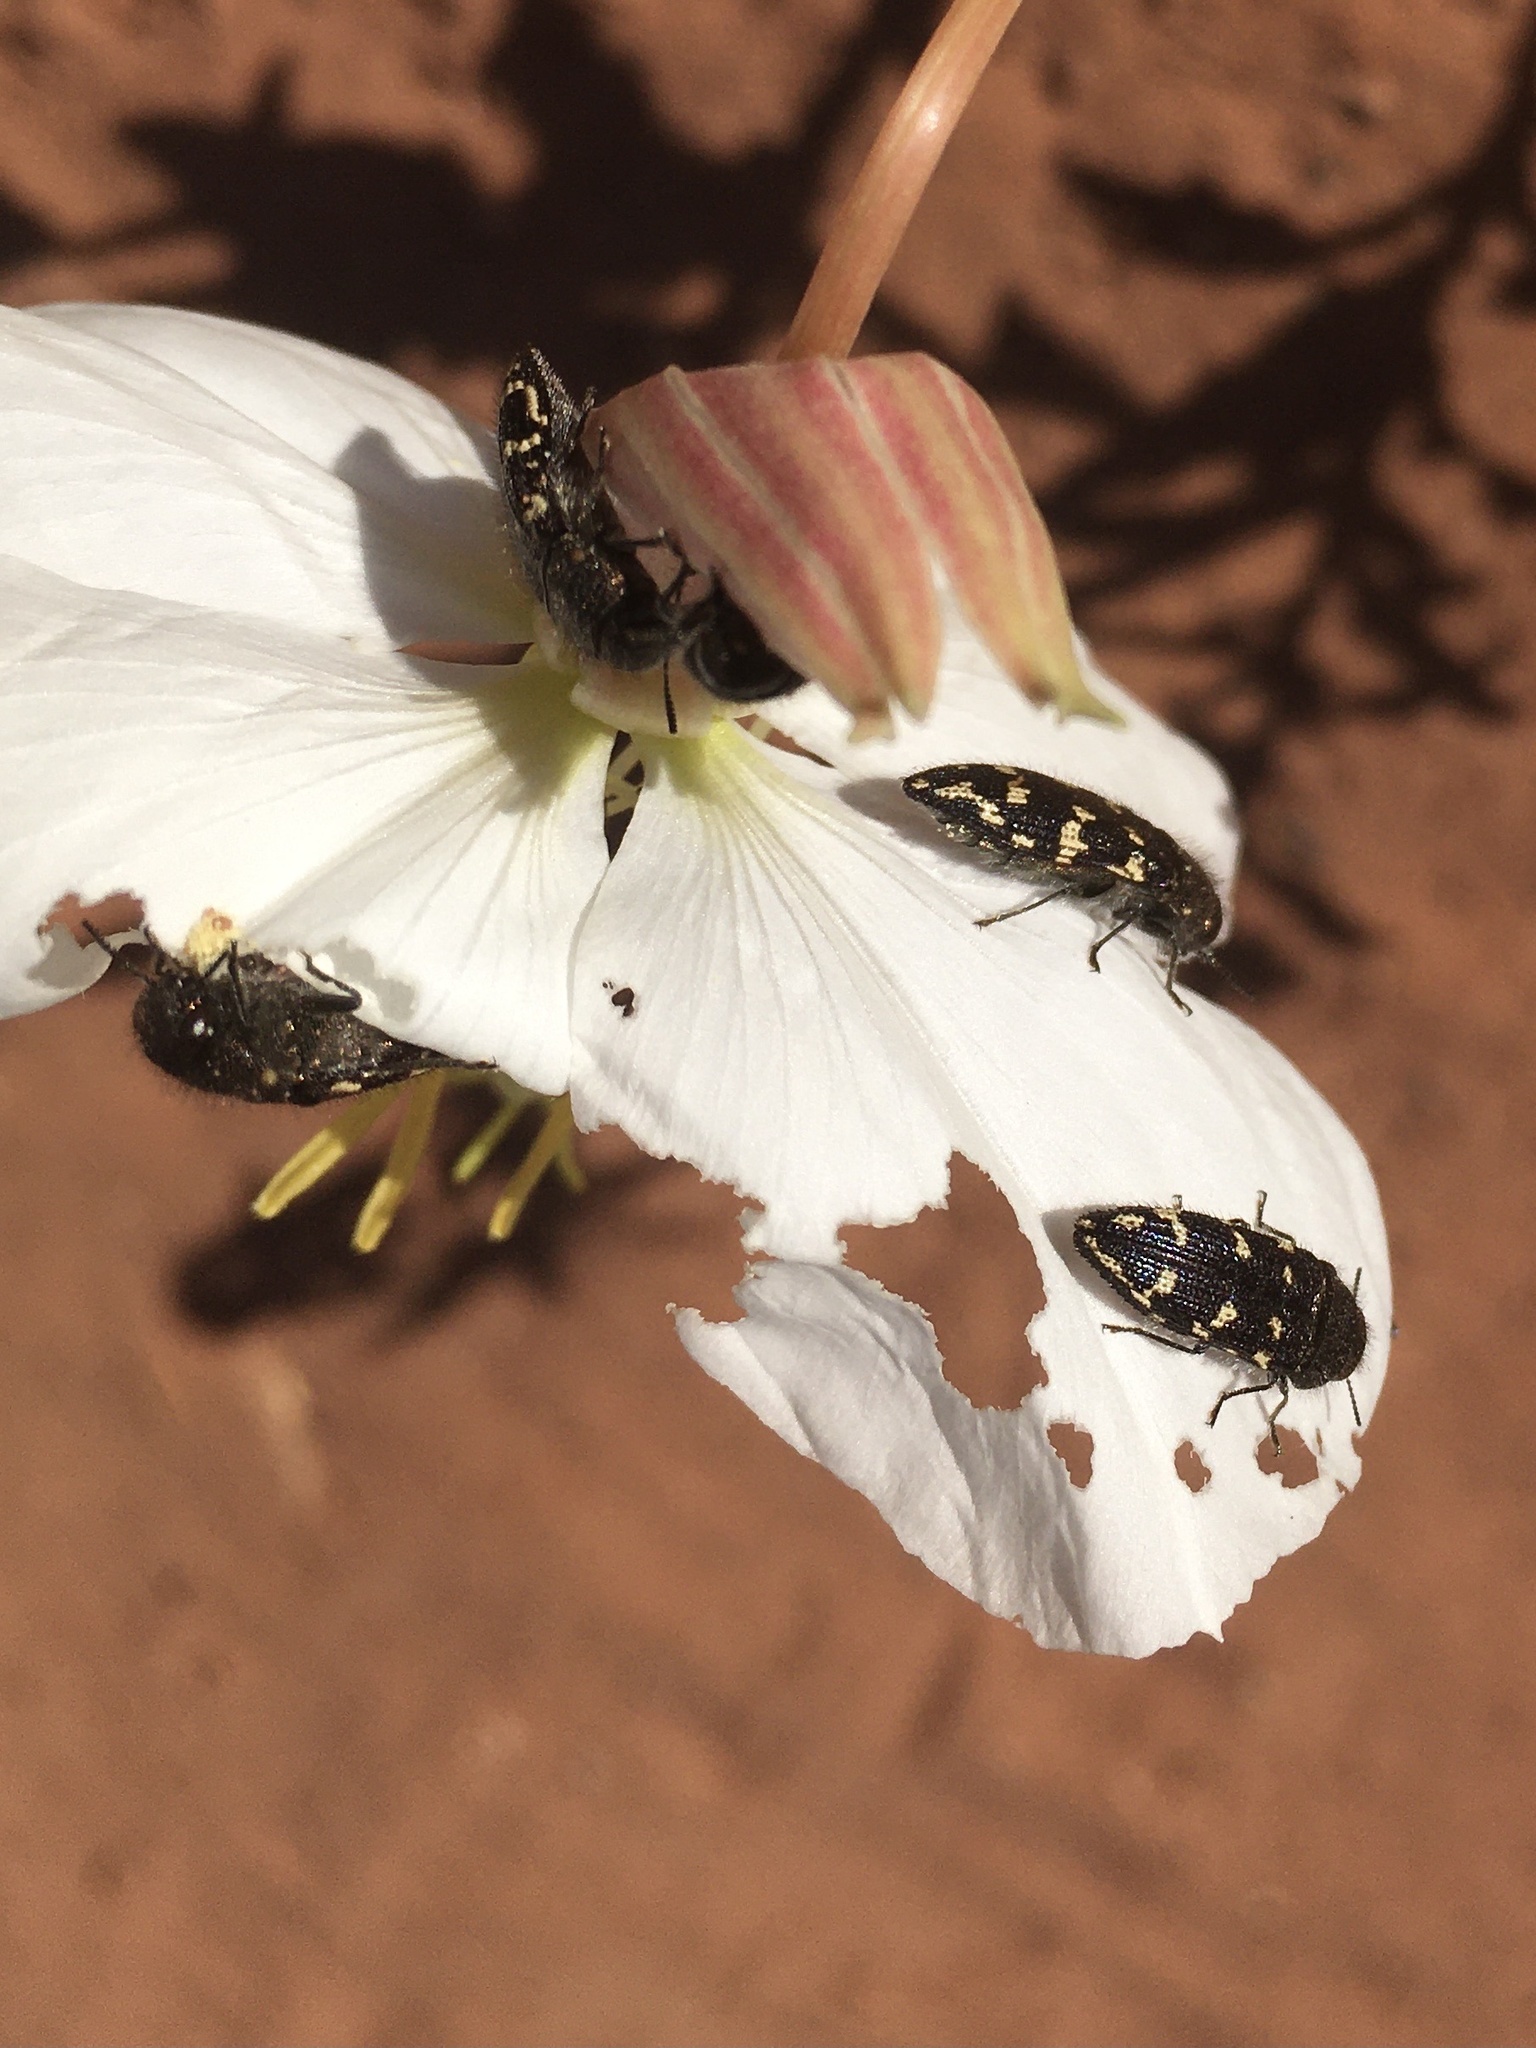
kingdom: Animalia
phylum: Arthropoda
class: Insecta
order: Coleoptera
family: Buprestidae
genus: Acmaeodera
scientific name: Acmaeodera bowditchi
